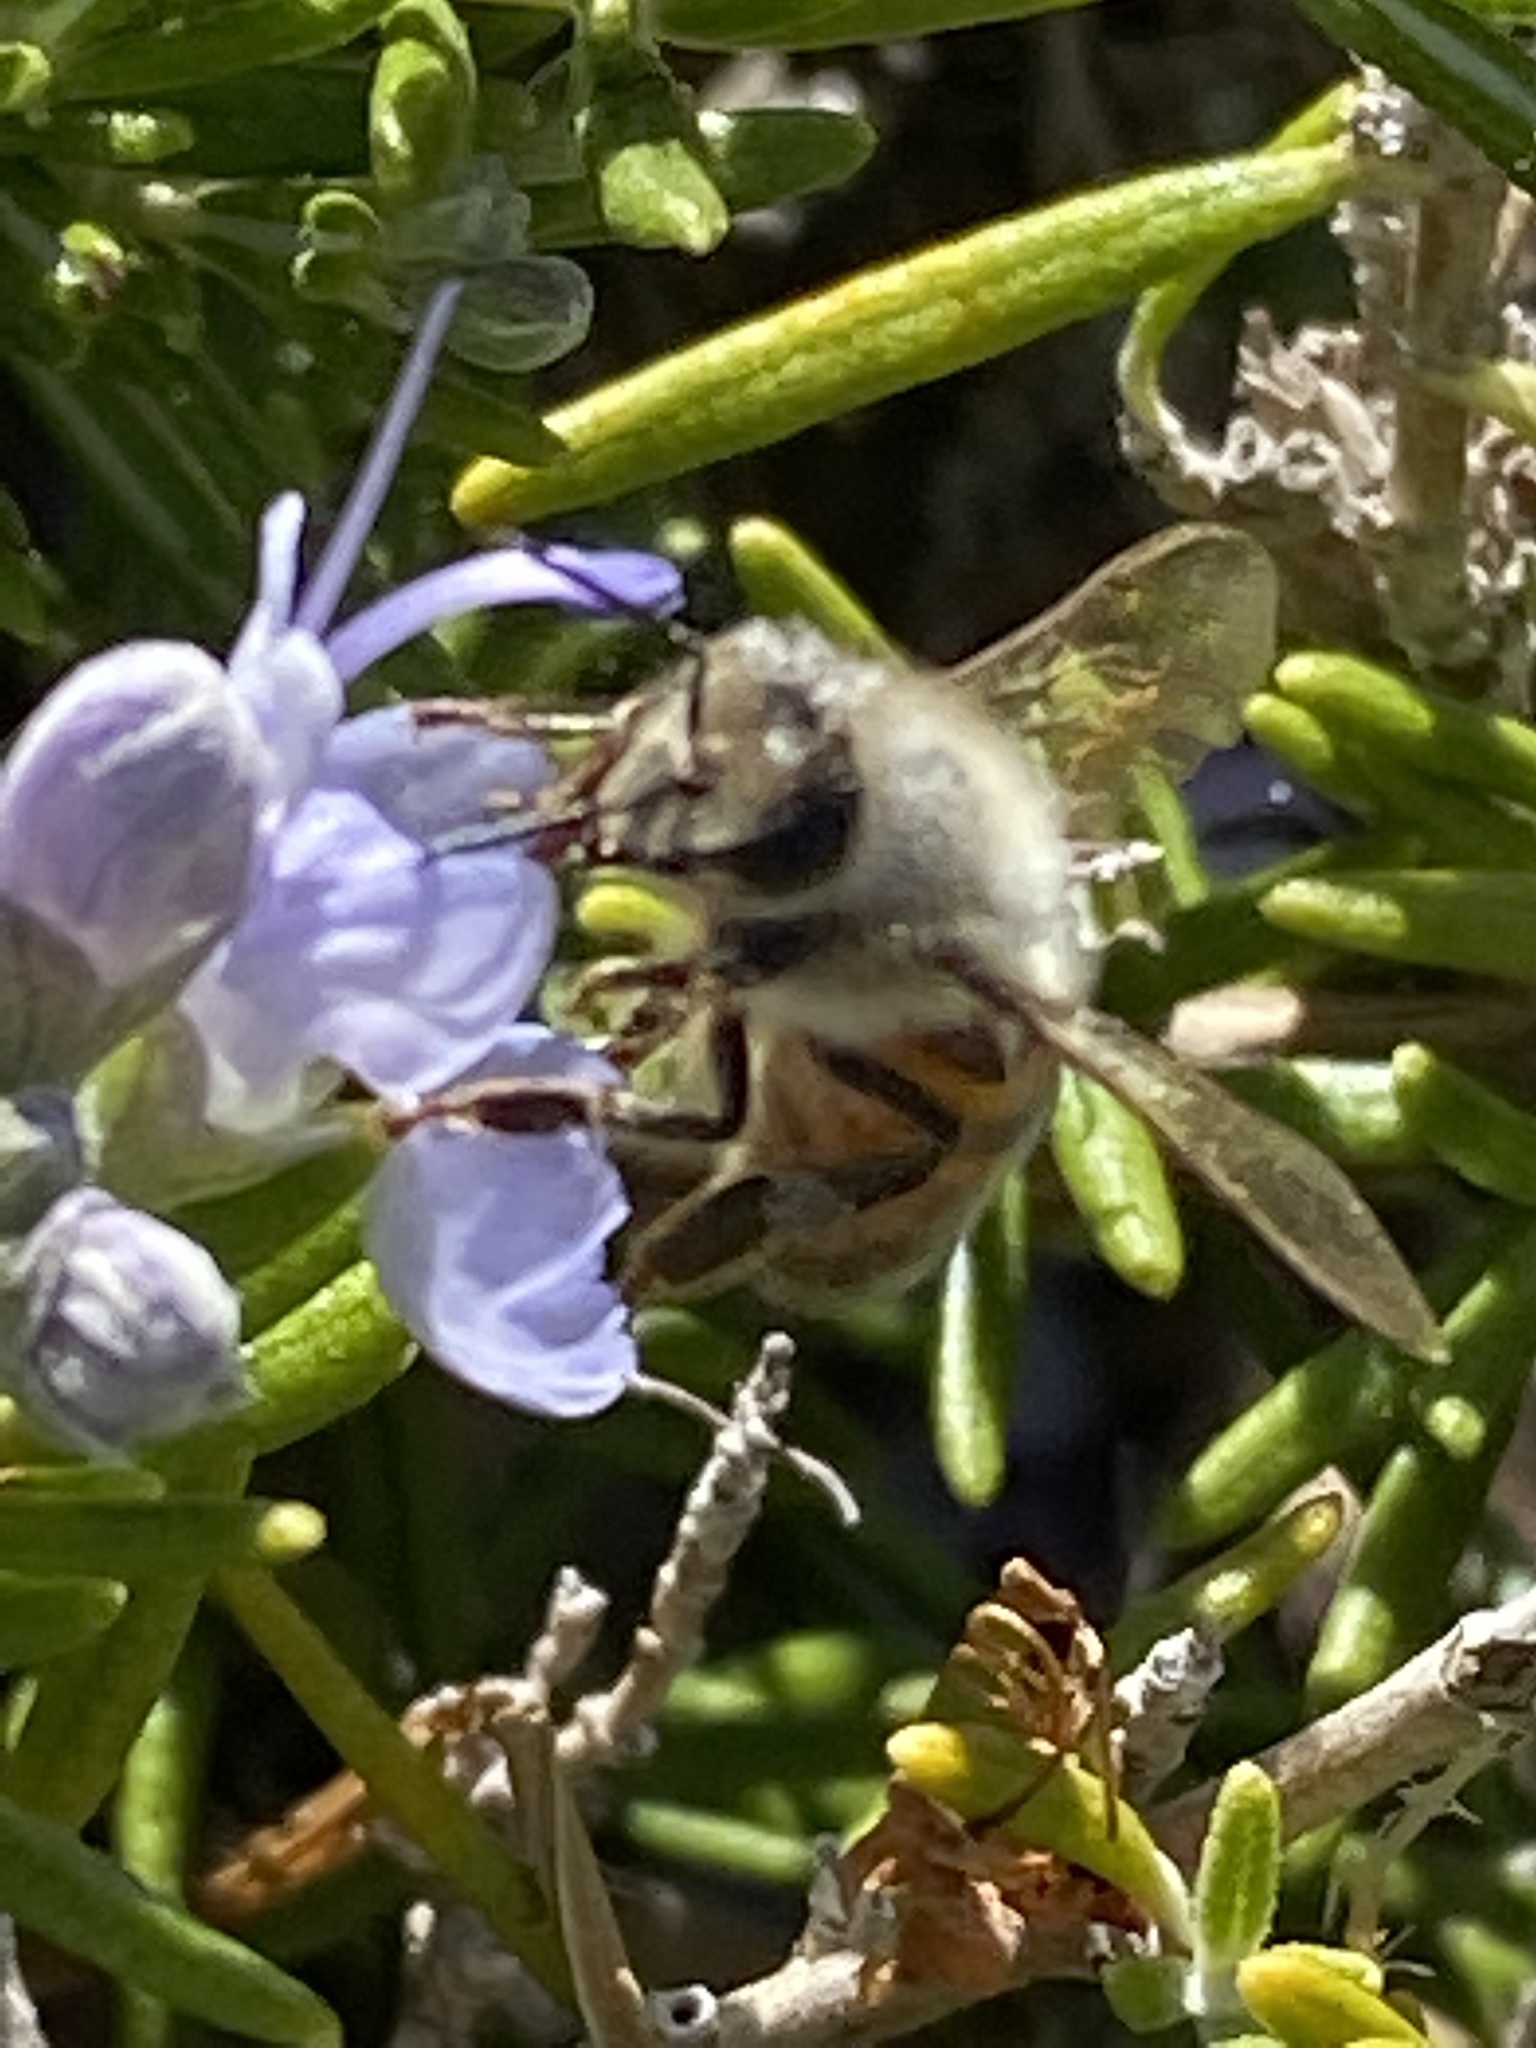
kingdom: Animalia
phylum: Arthropoda
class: Insecta
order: Hymenoptera
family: Apidae
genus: Apis
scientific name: Apis mellifera
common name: Honey bee
